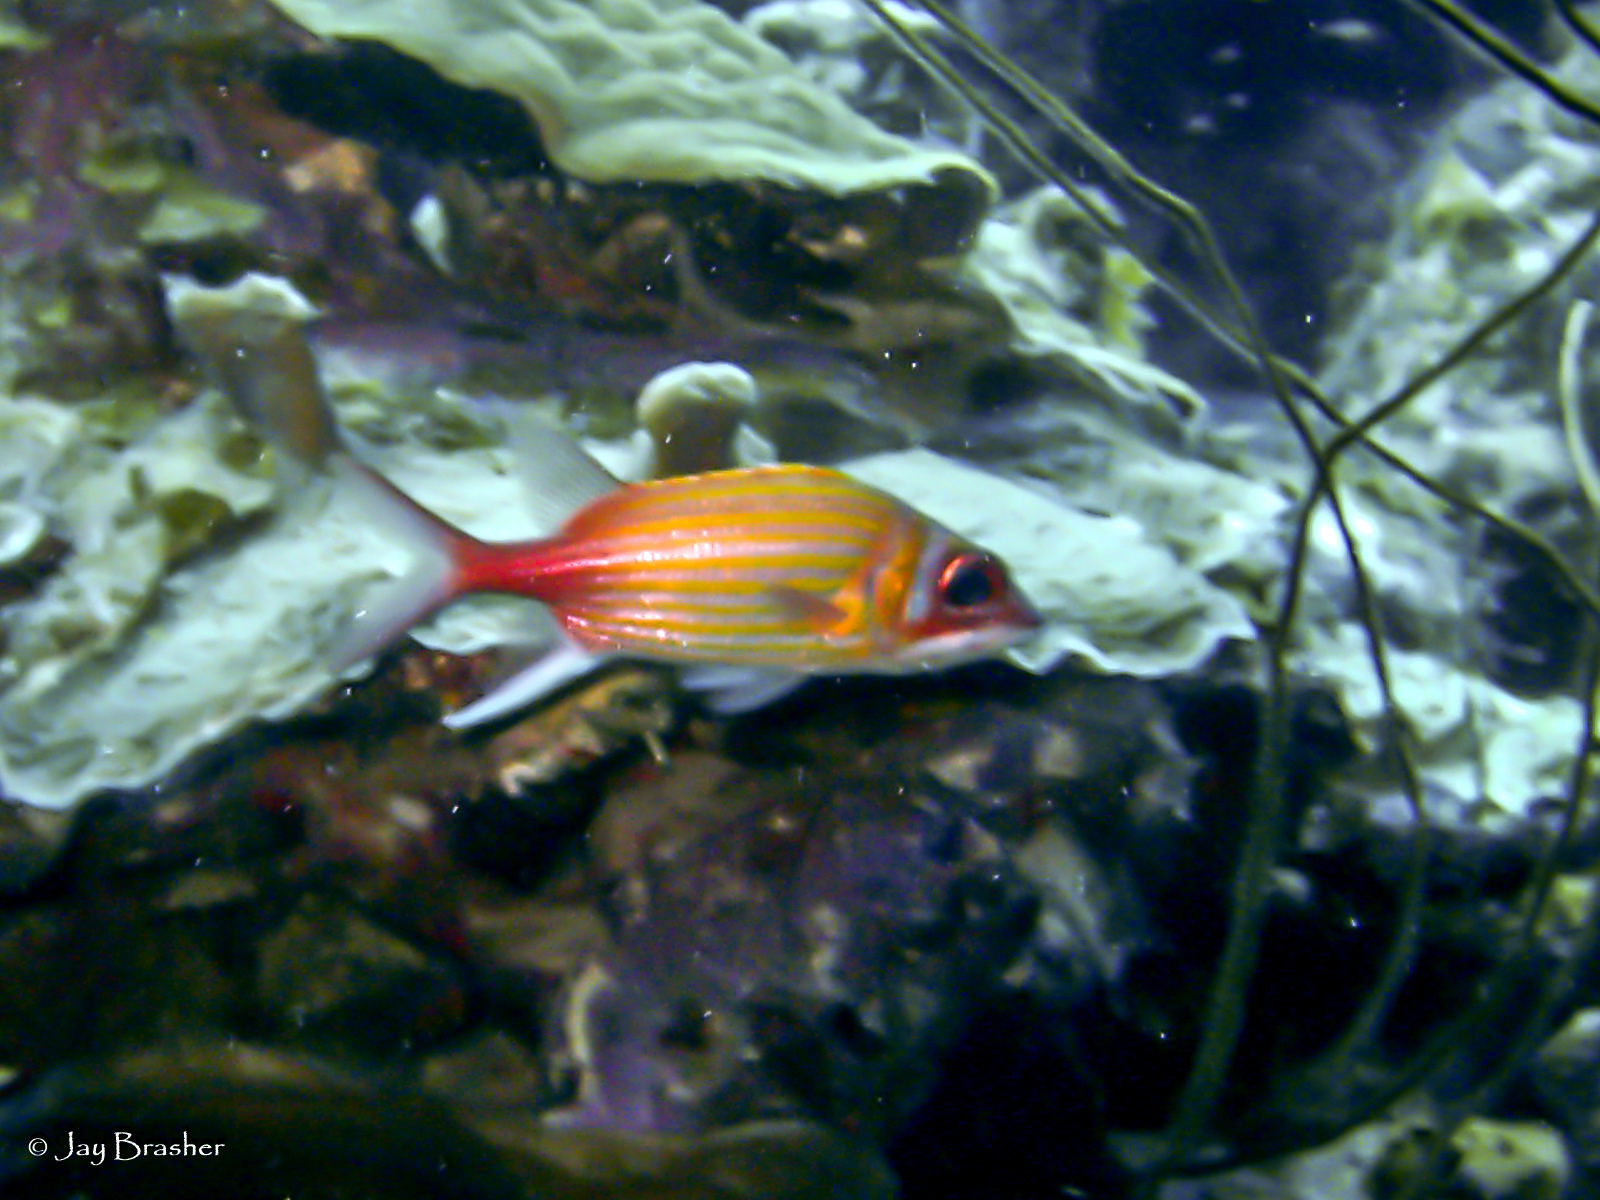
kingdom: Animalia
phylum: Chordata
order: Beryciformes
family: Holocentridae
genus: Neoniphon
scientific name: Neoniphon marianus
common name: Longjaw squirrelfish
